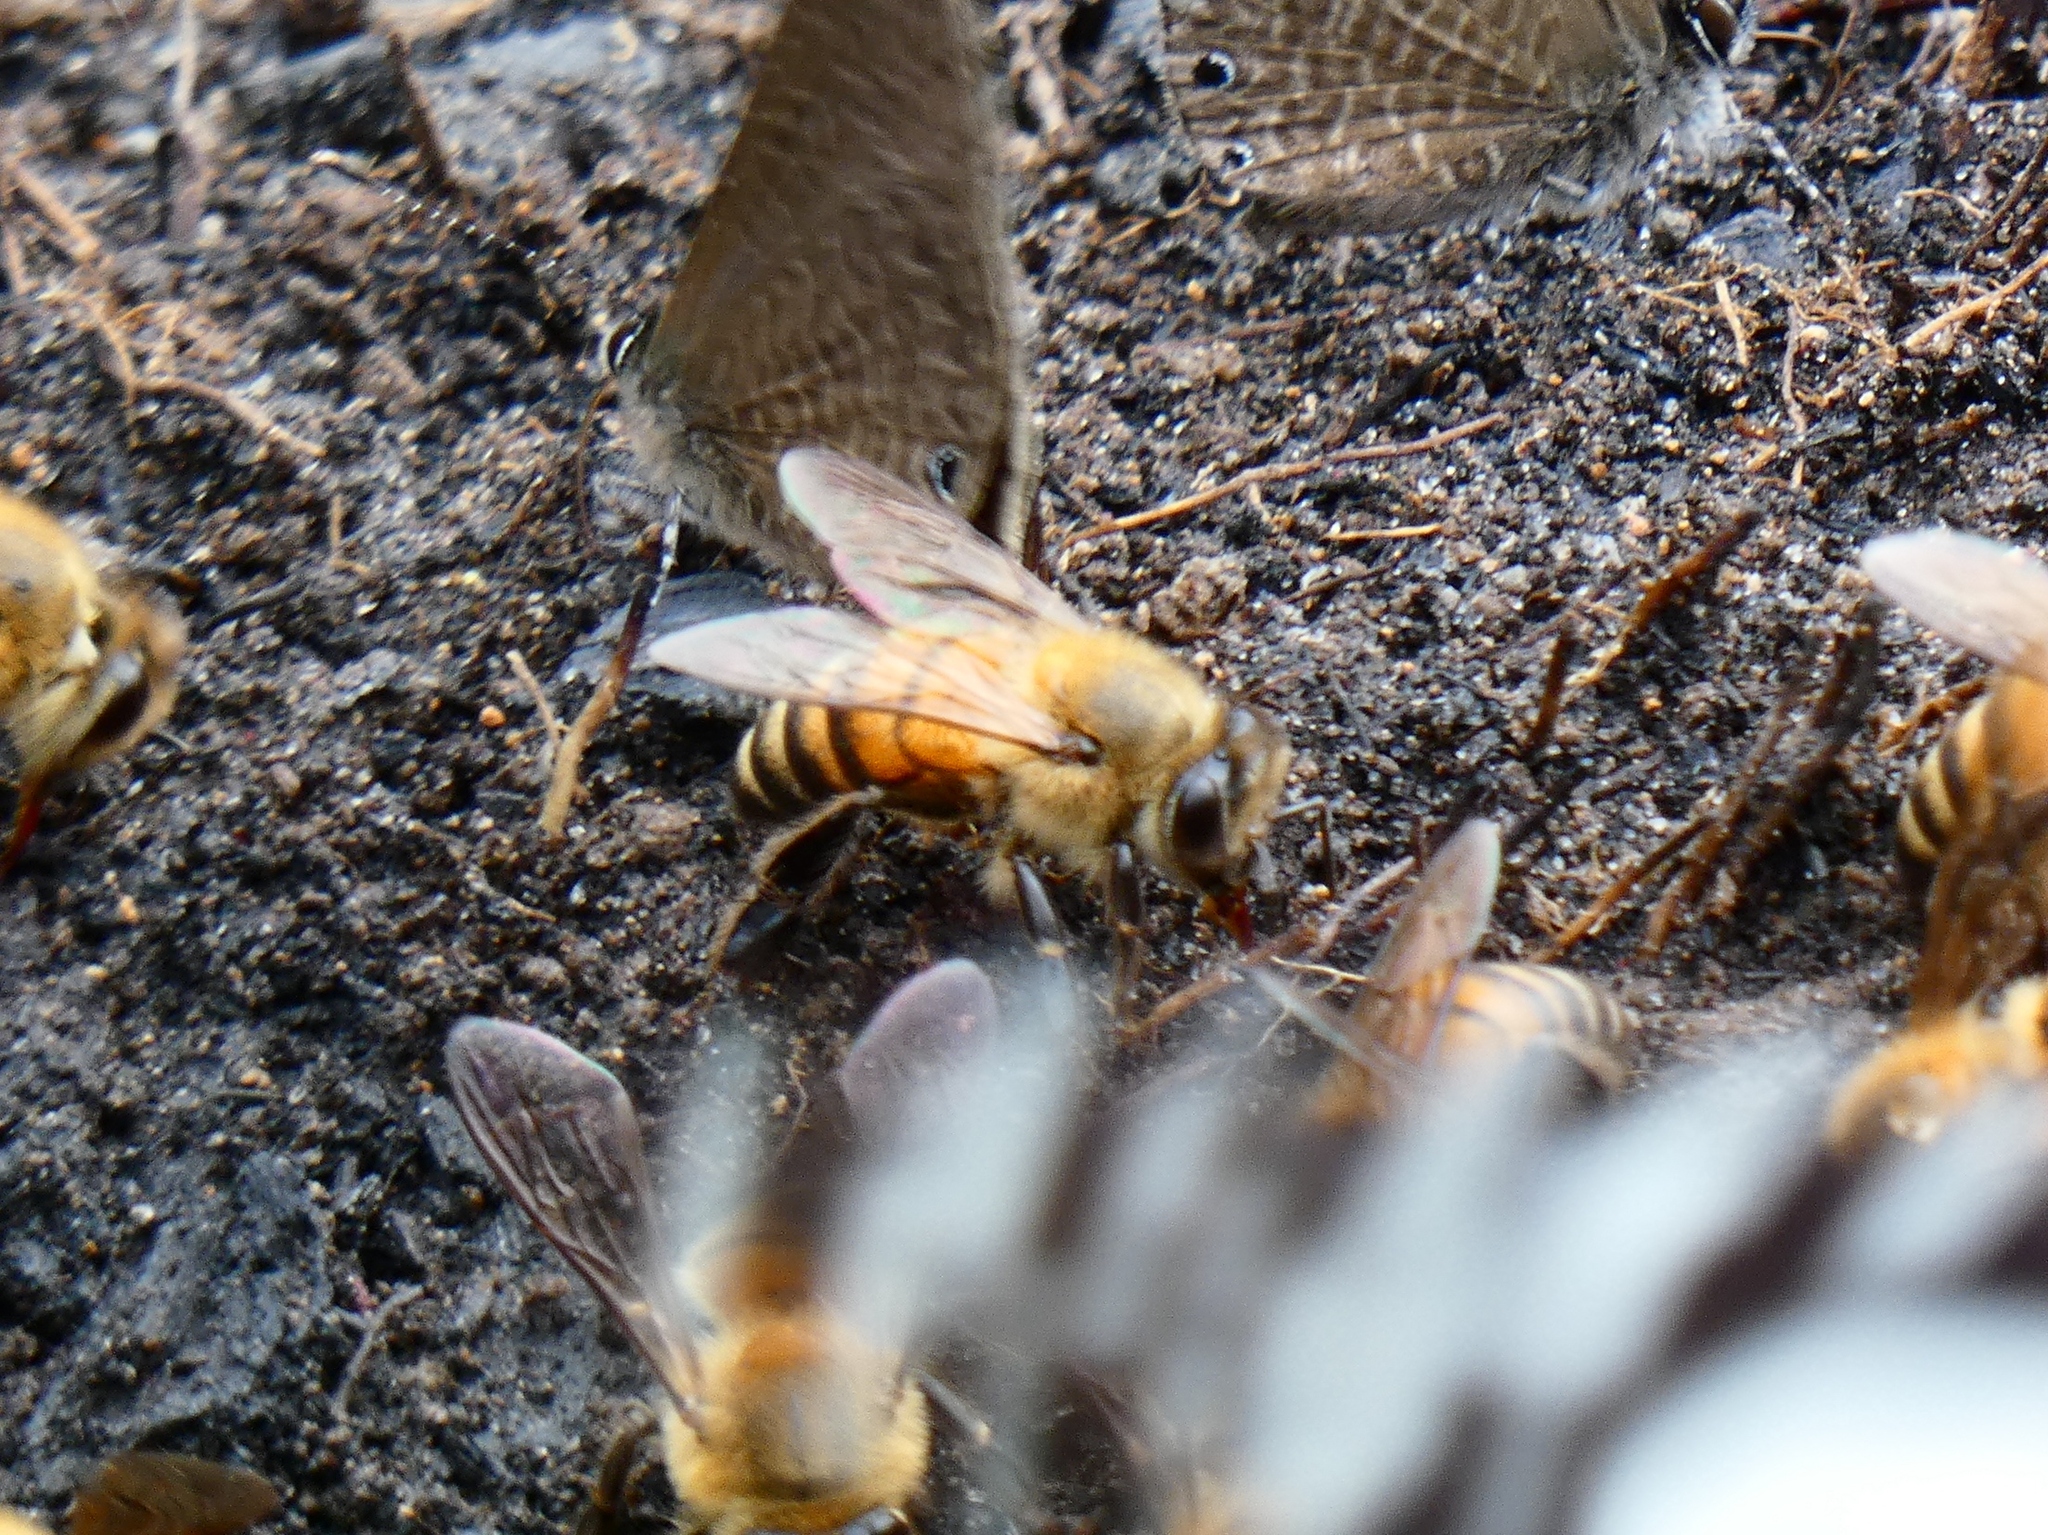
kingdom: Animalia
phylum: Arthropoda
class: Insecta
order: Hymenoptera
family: Apidae
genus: Apis
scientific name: Apis mellifera
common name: Honey bee
